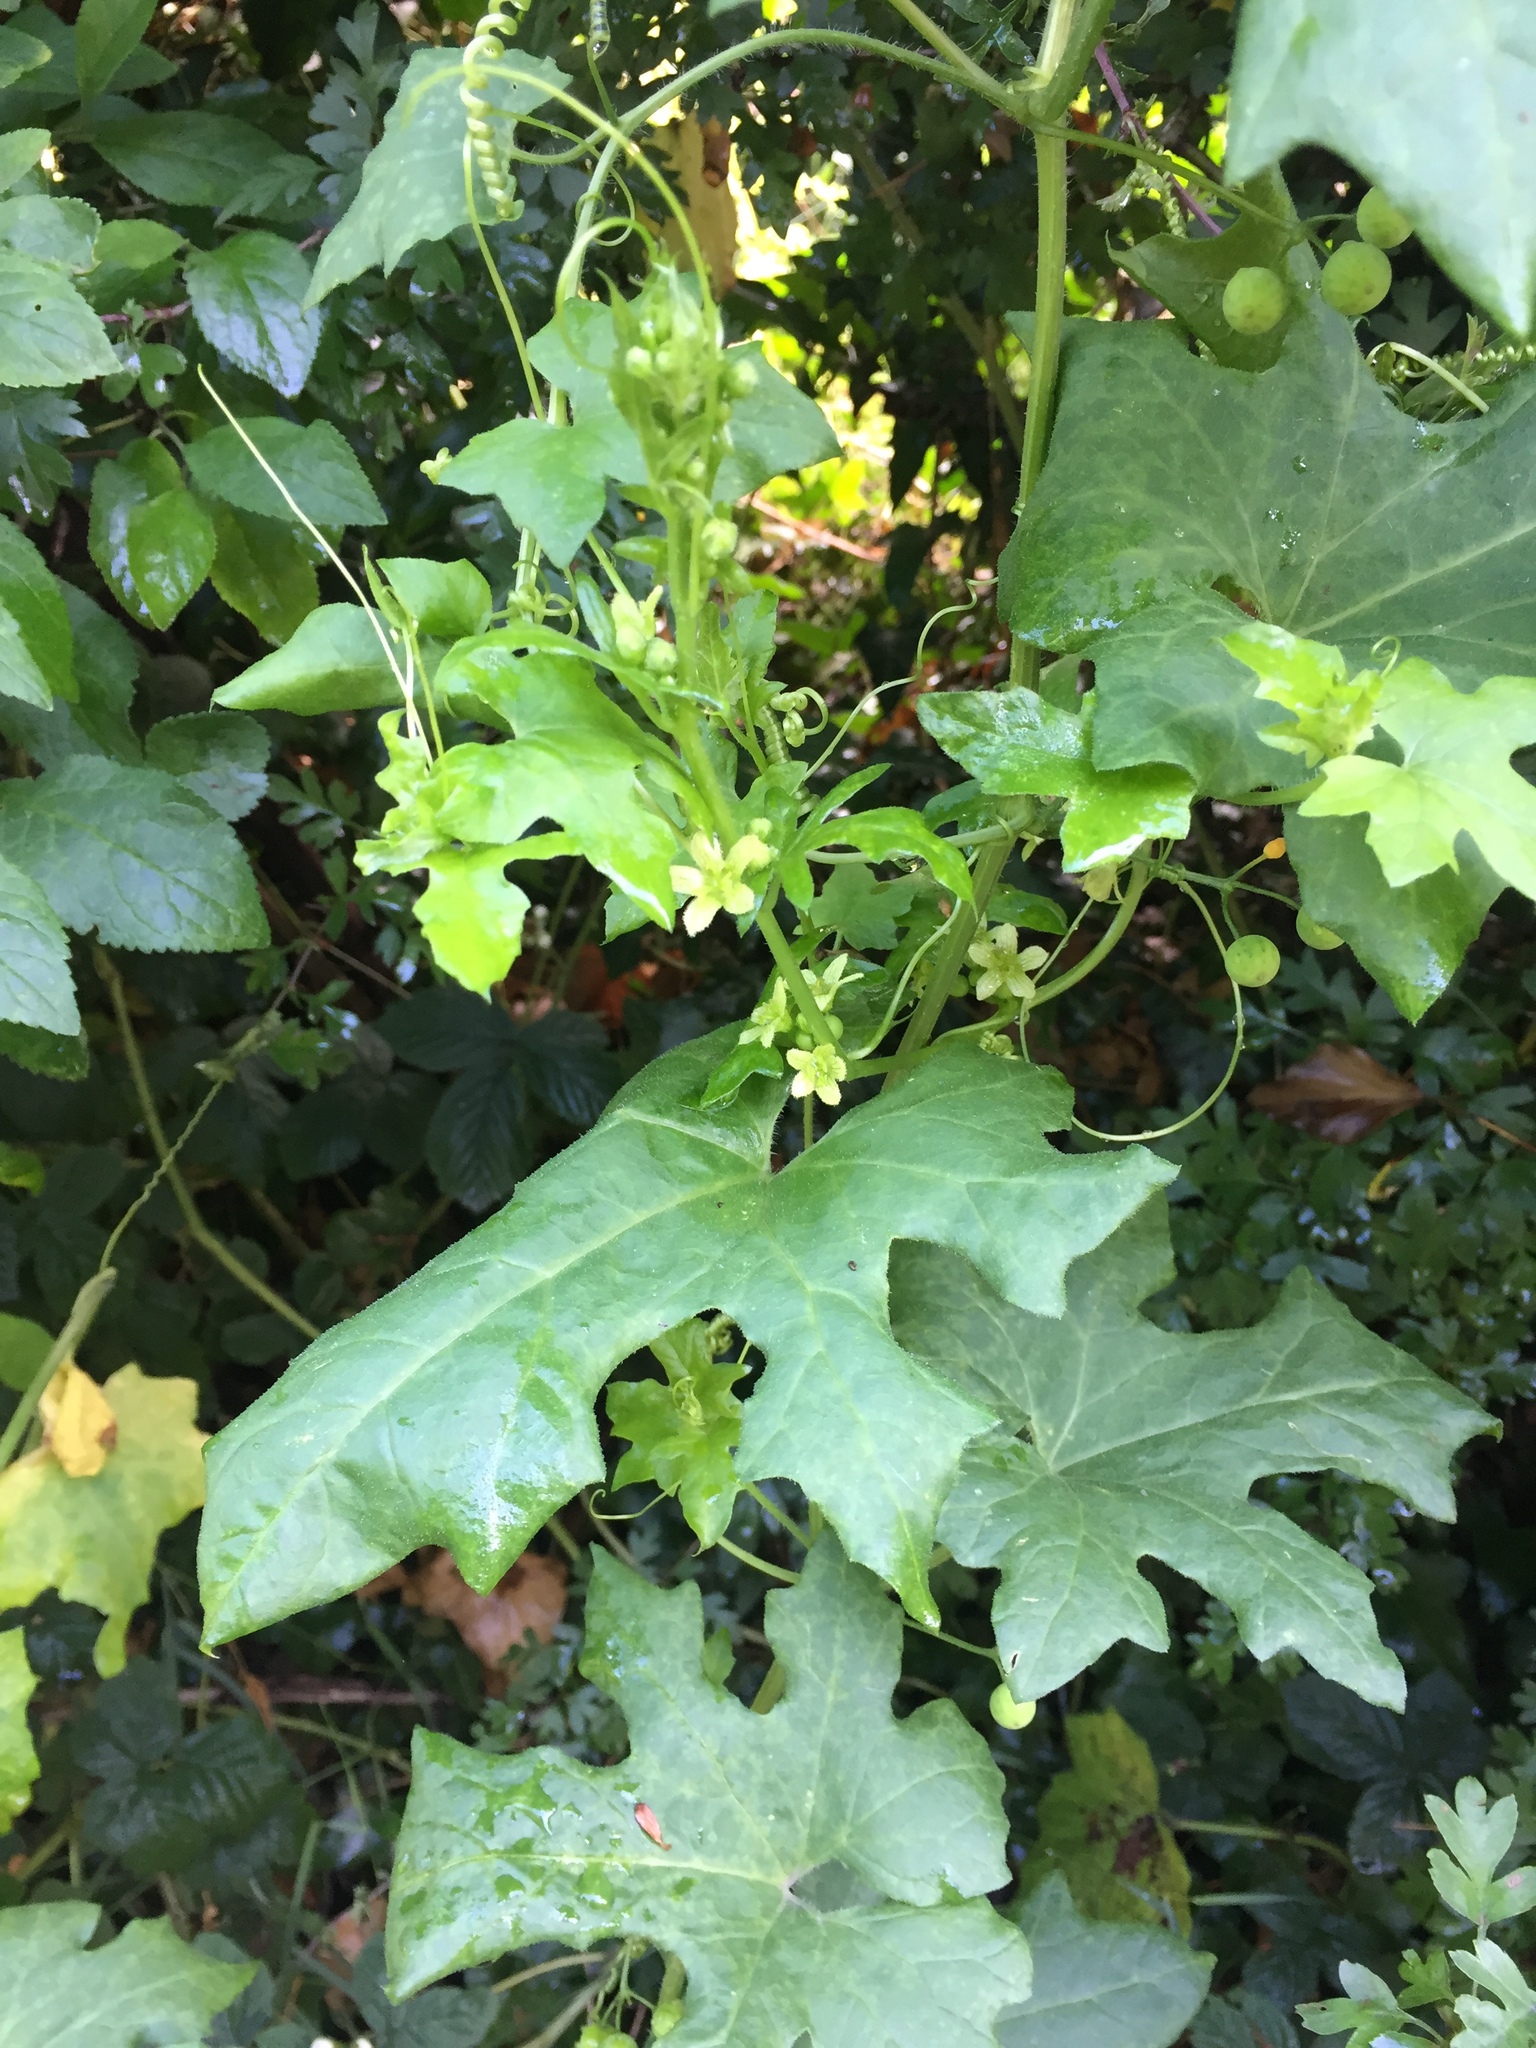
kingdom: Plantae
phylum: Tracheophyta
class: Magnoliopsida
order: Cucurbitales
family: Cucurbitaceae
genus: Bryonia
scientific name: Bryonia cretica
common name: Cretan bryony
